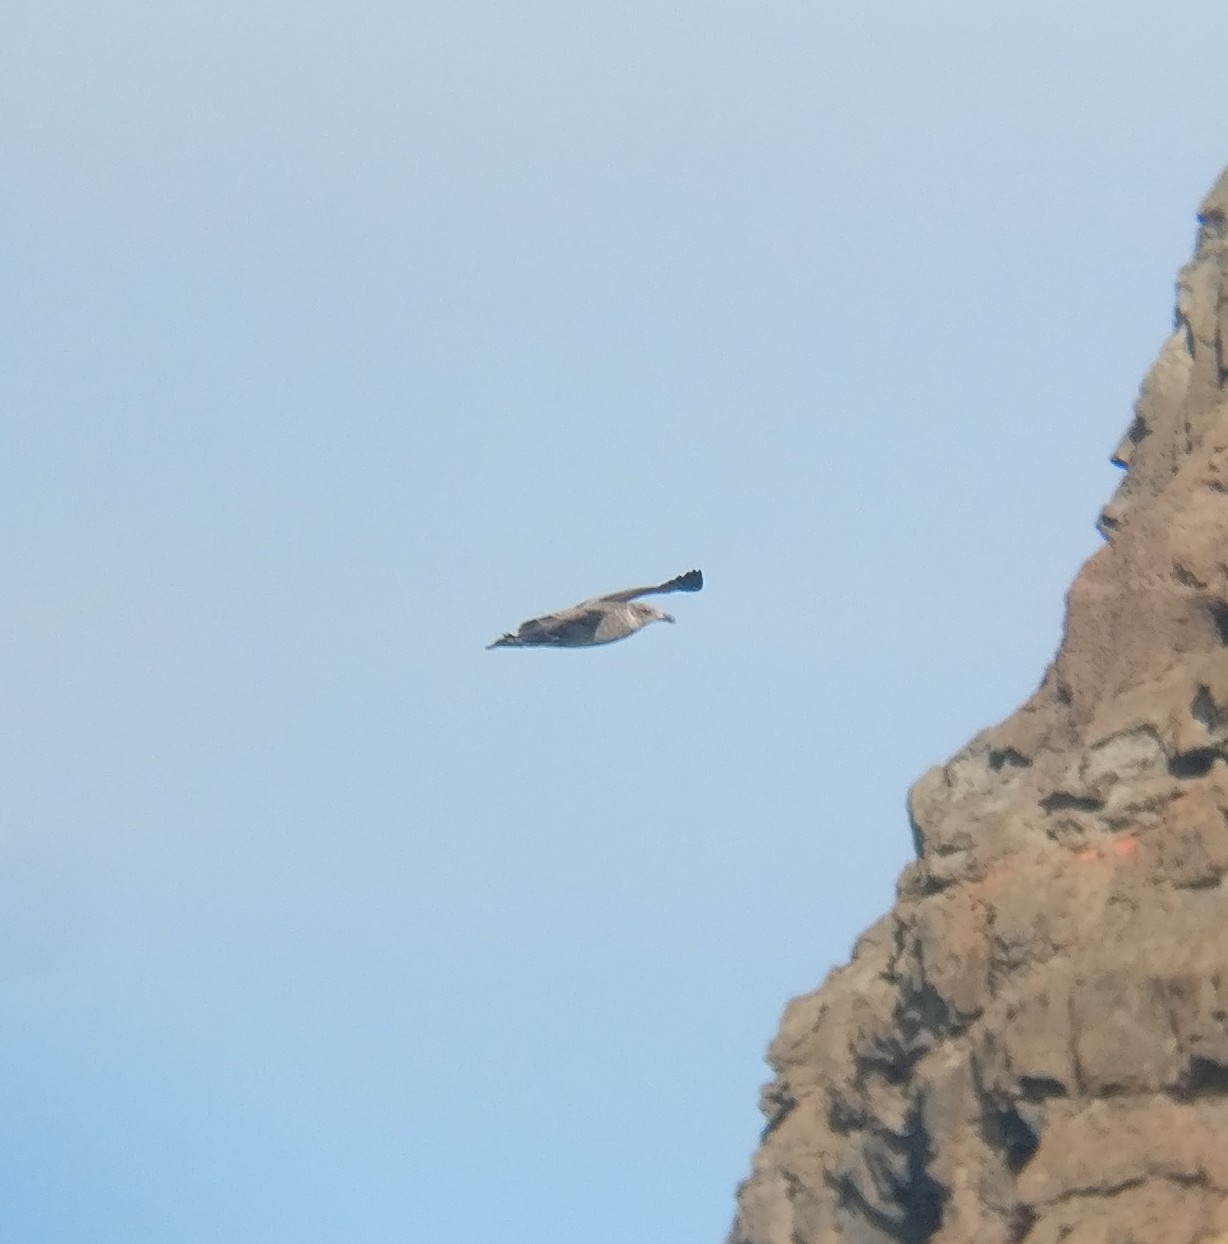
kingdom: Animalia
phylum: Chordata
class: Aves
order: Charadriiformes
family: Laridae
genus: Larus
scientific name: Larus dominicanus
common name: Kelp gull
